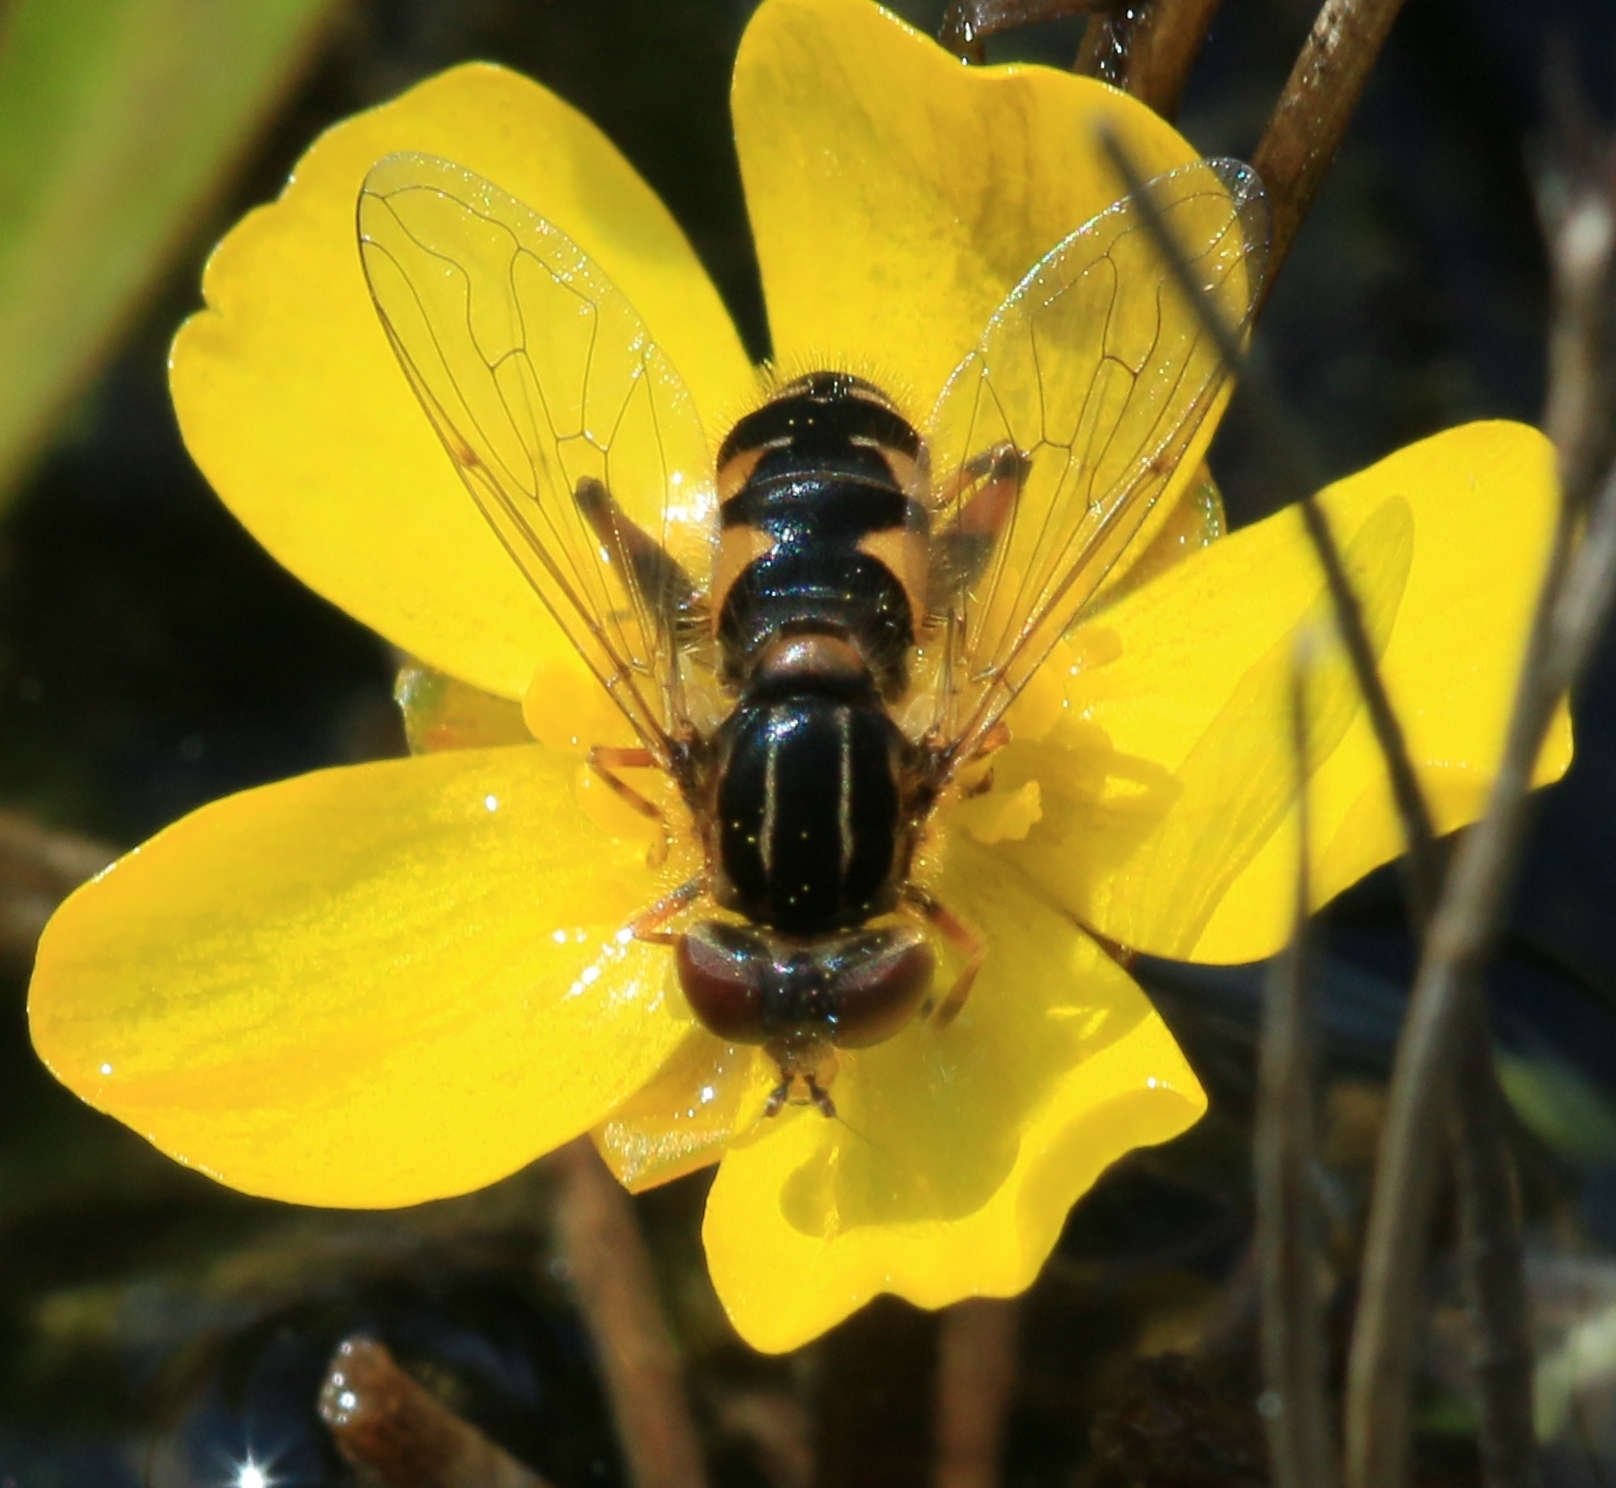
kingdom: Animalia
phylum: Arthropoda
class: Insecta
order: Diptera
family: Syrphidae
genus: Eurimyia
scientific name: Eurimyia lineatus
